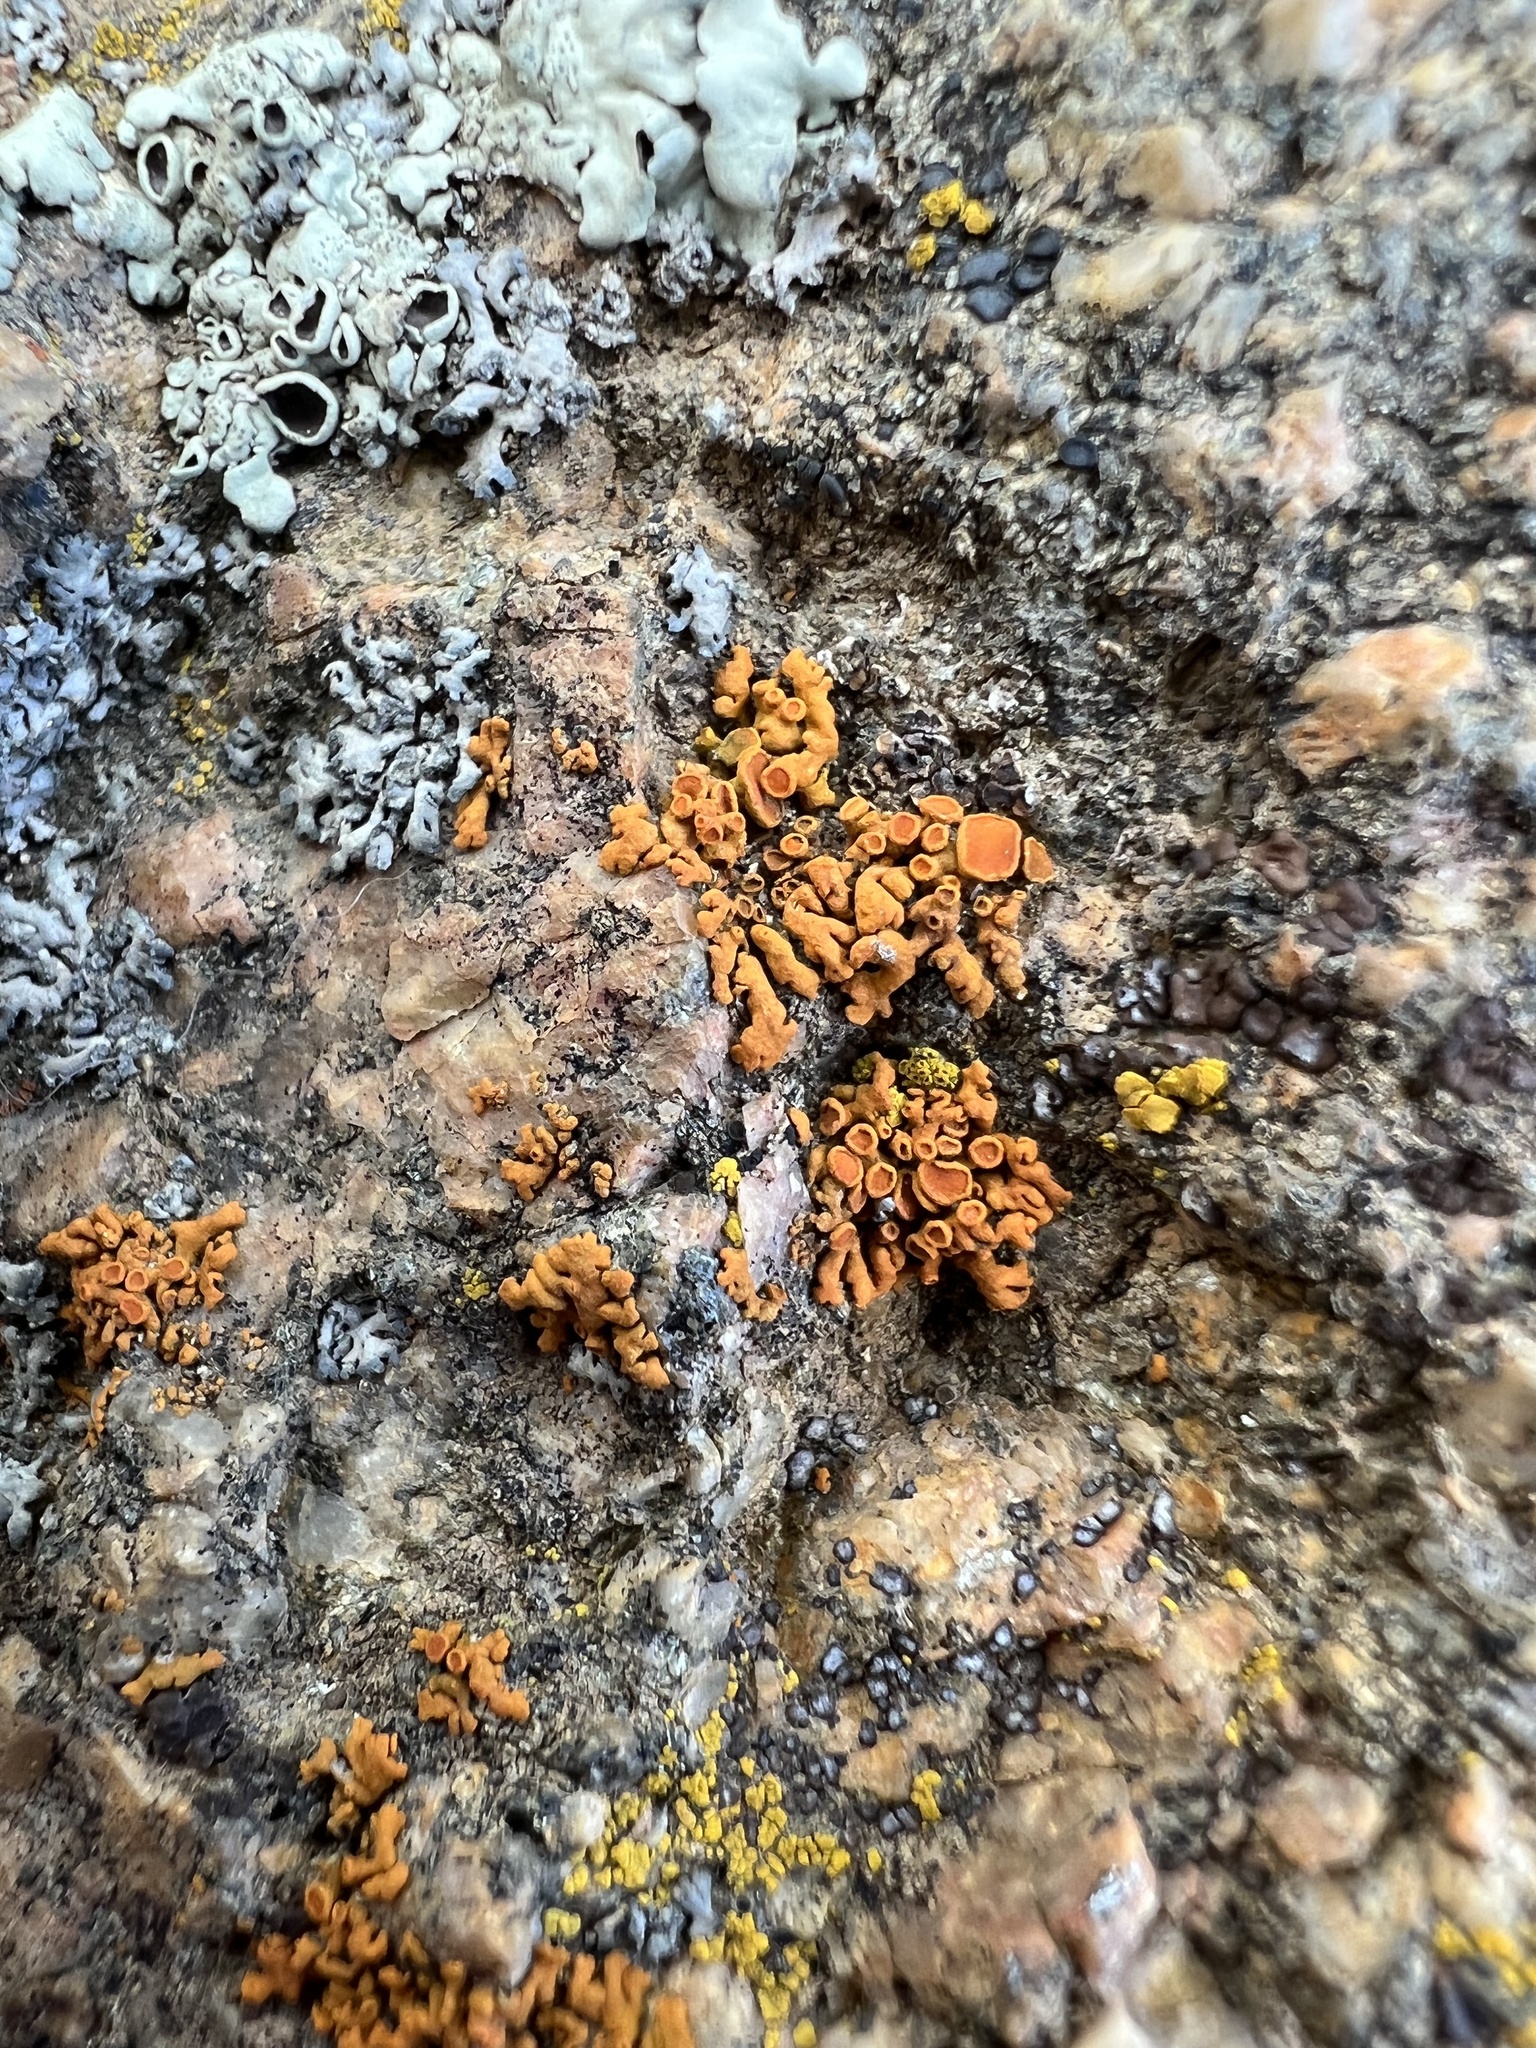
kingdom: Fungi
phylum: Ascomycota
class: Lecanoromycetes
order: Teloschistales
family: Teloschistaceae
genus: Xanthoria
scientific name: Xanthoria elegans
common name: Elegant sunburst lichen
